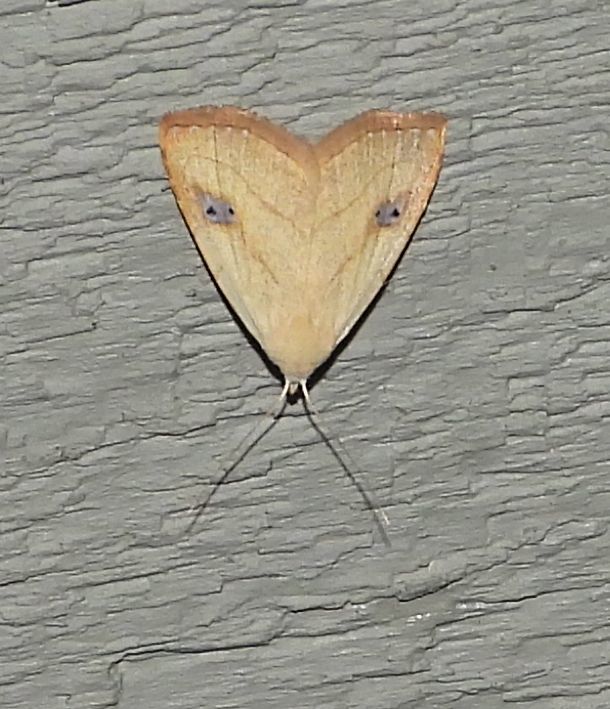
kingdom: Animalia
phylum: Arthropoda
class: Insecta
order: Lepidoptera
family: Erebidae
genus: Rivula
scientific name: Rivula propinqualis
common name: Spotted grass moth
